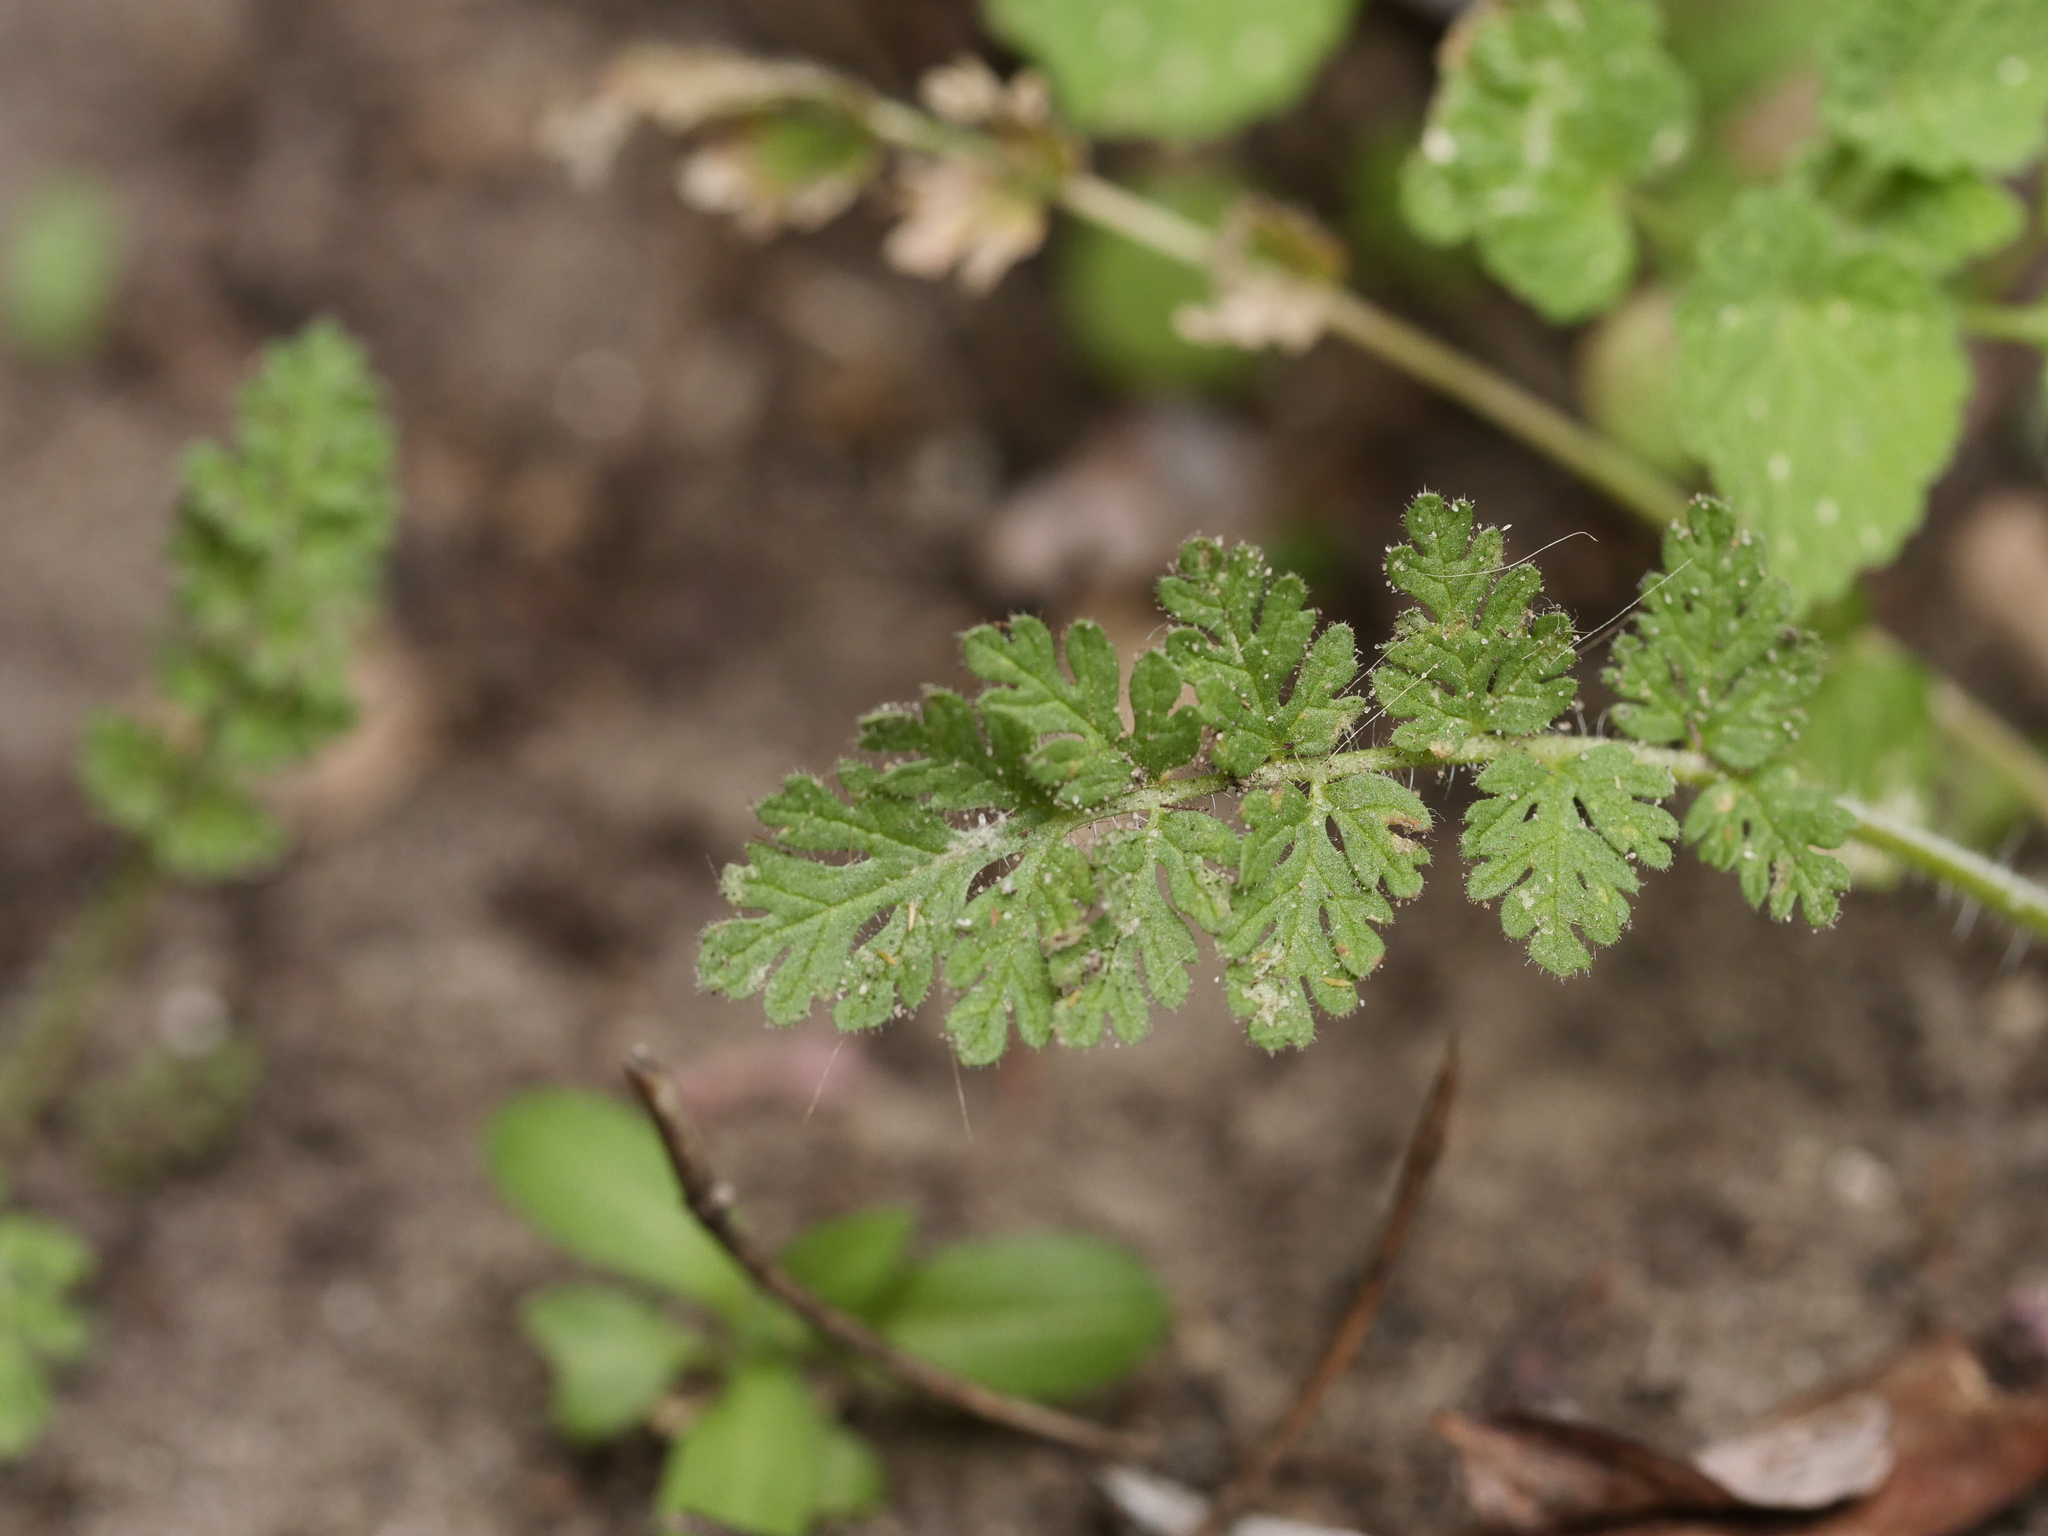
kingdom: Plantae
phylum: Tracheophyta
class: Magnoliopsida
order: Geraniales
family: Geraniaceae
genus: Erodium
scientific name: Erodium cicutarium
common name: Common stork's-bill
